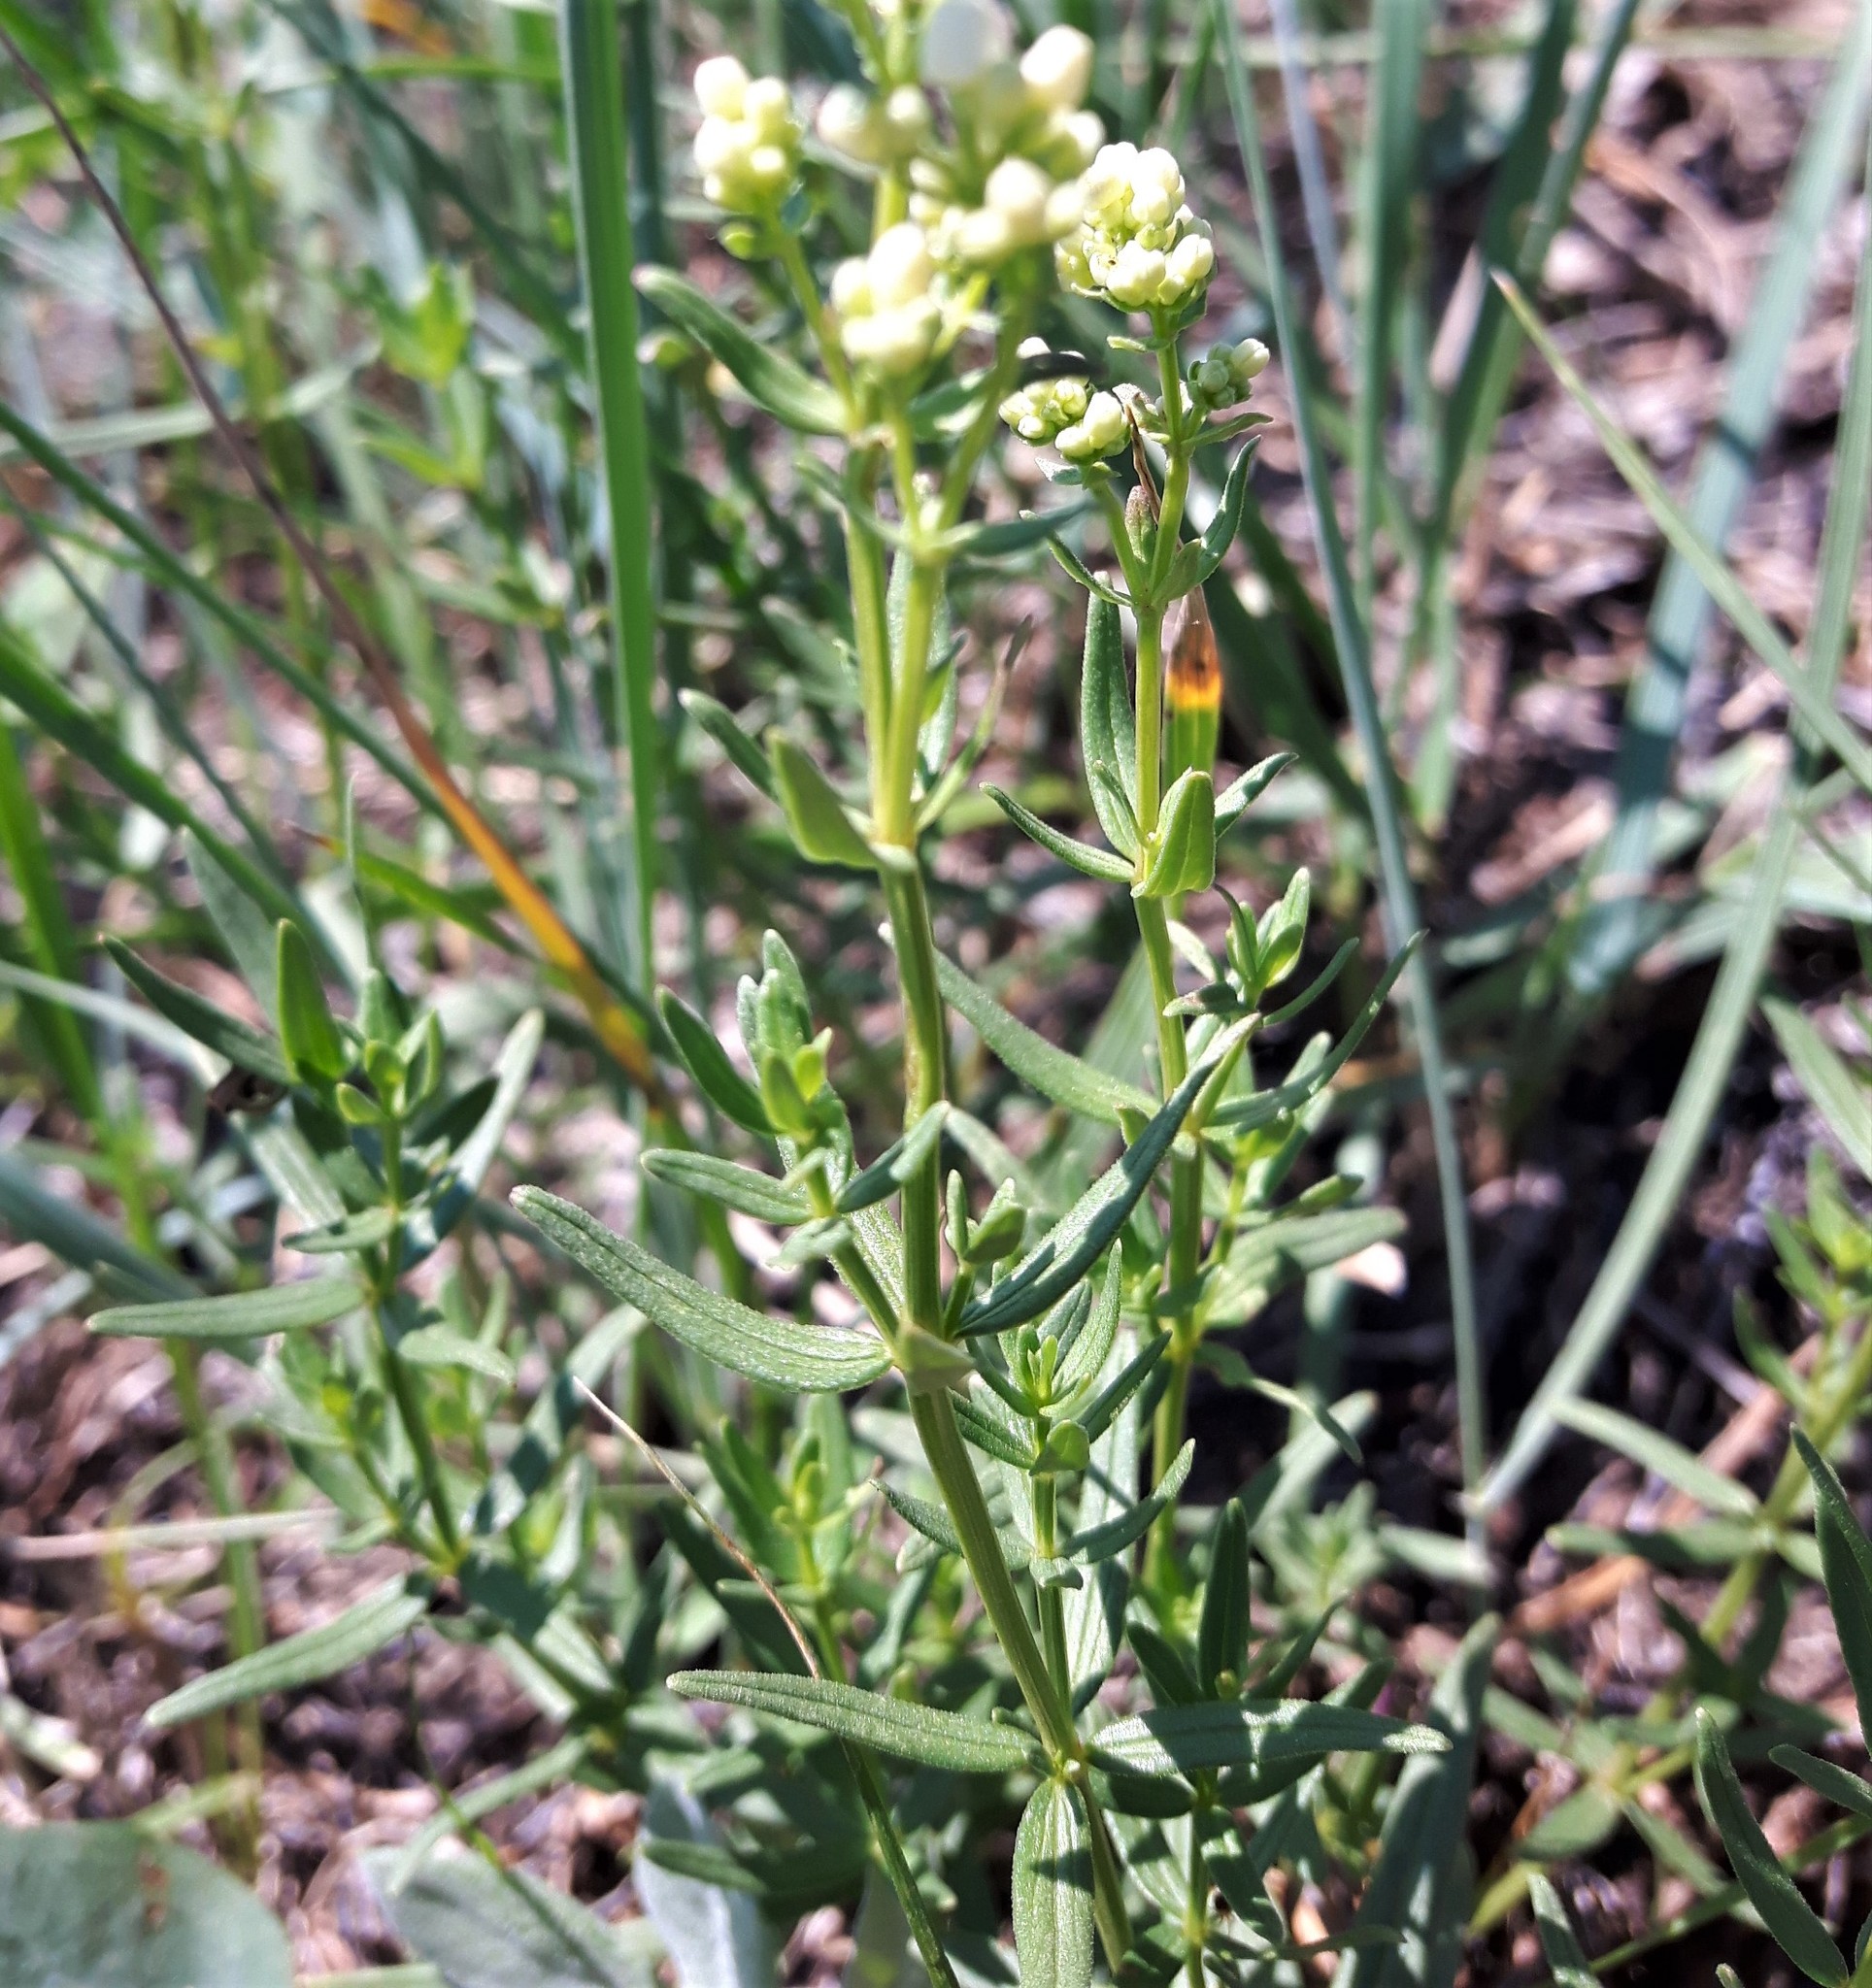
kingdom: Plantae
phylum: Tracheophyta
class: Magnoliopsida
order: Gentianales
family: Rubiaceae
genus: Galium
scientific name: Galium boreale
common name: Northern bedstraw
